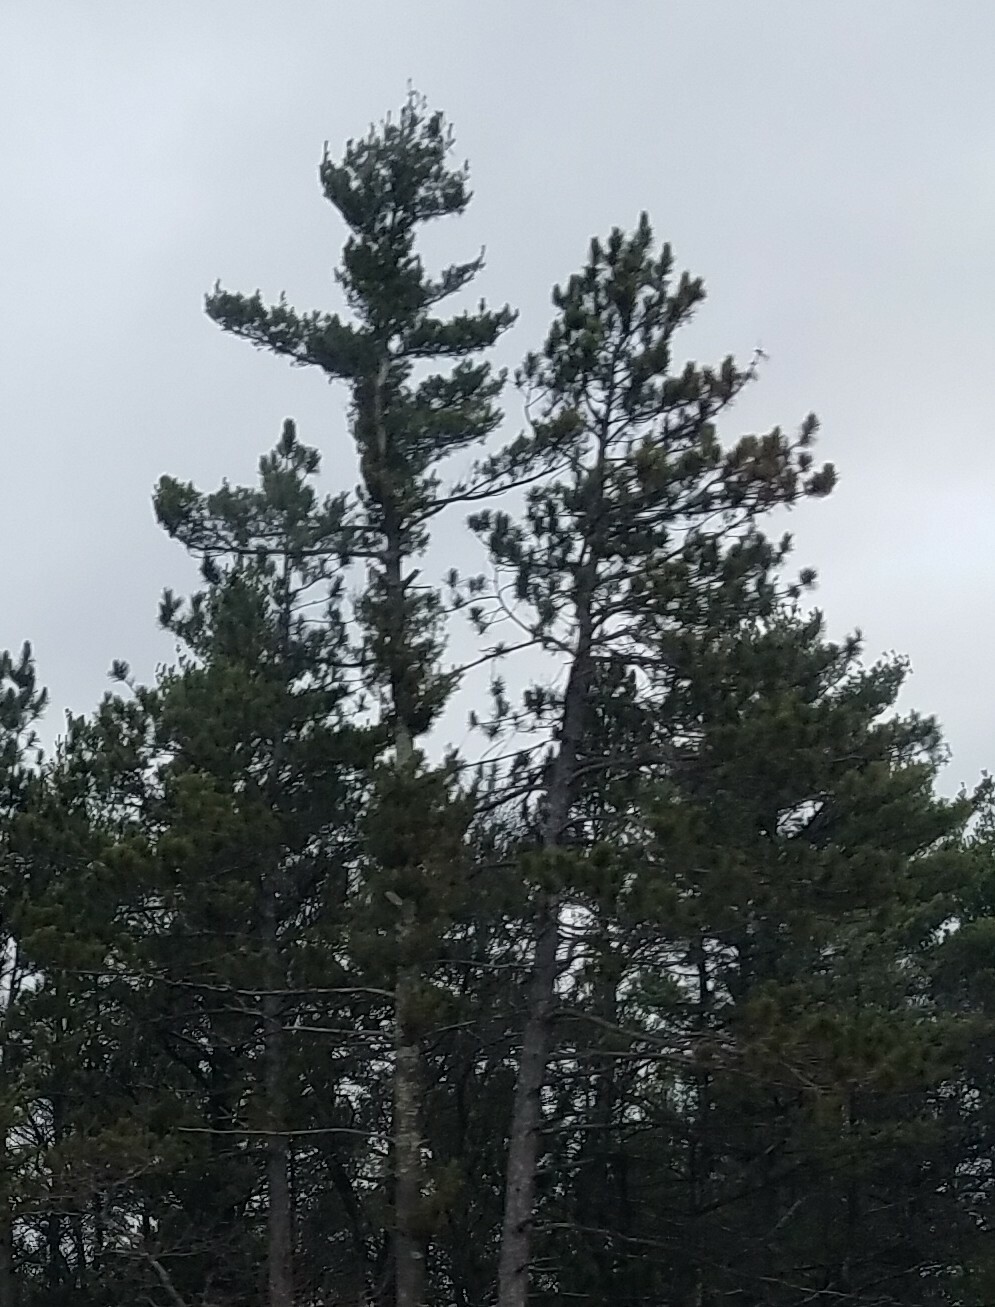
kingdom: Plantae
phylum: Tracheophyta
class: Pinopsida
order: Pinales
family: Pinaceae
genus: Pinus
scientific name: Pinus strobus
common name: Weymouth pine
